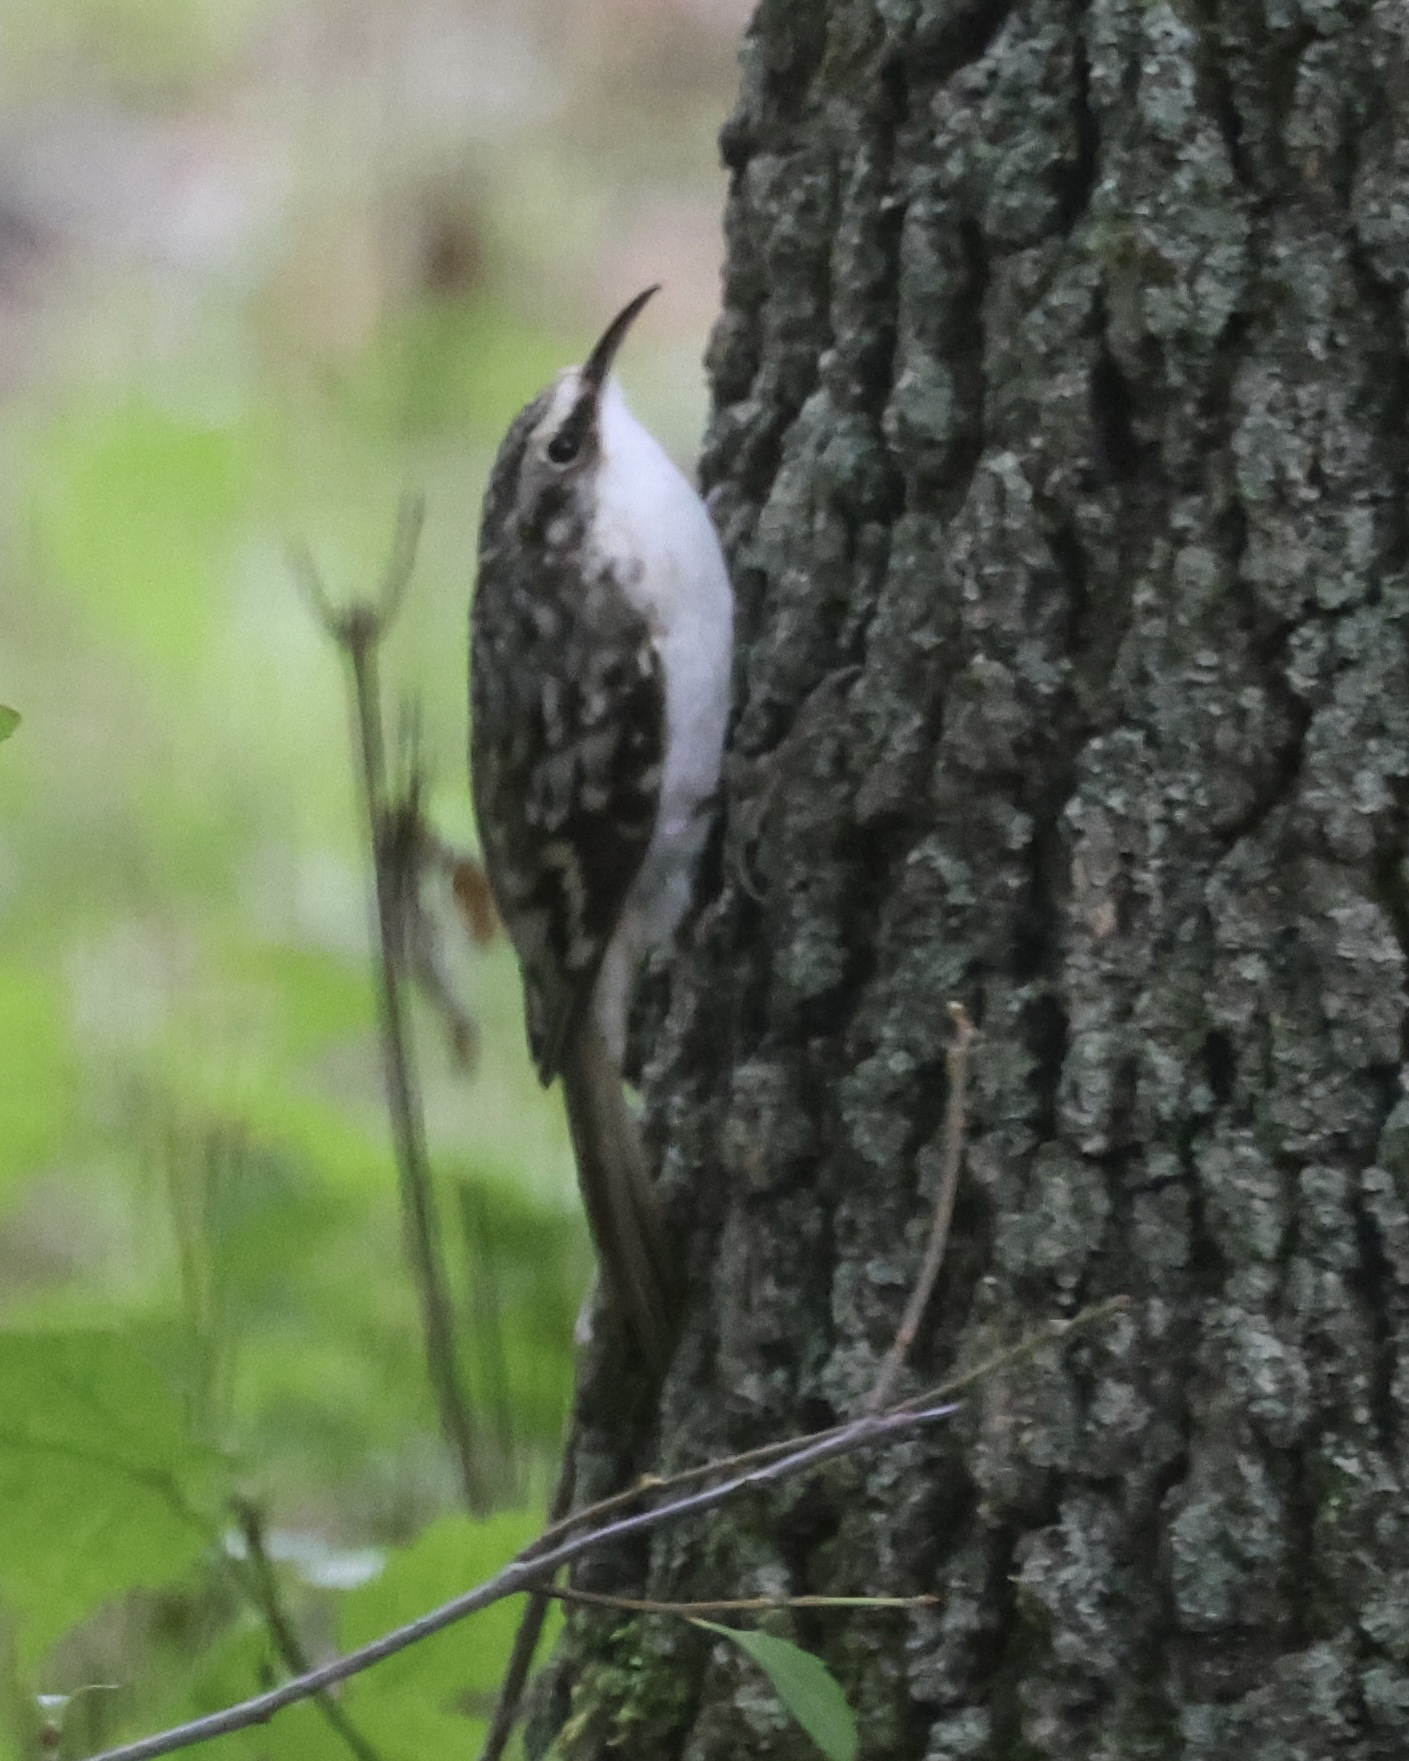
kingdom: Animalia
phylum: Chordata
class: Aves
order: Passeriformes
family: Certhiidae
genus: Certhia
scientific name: Certhia americana
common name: Brown creeper
